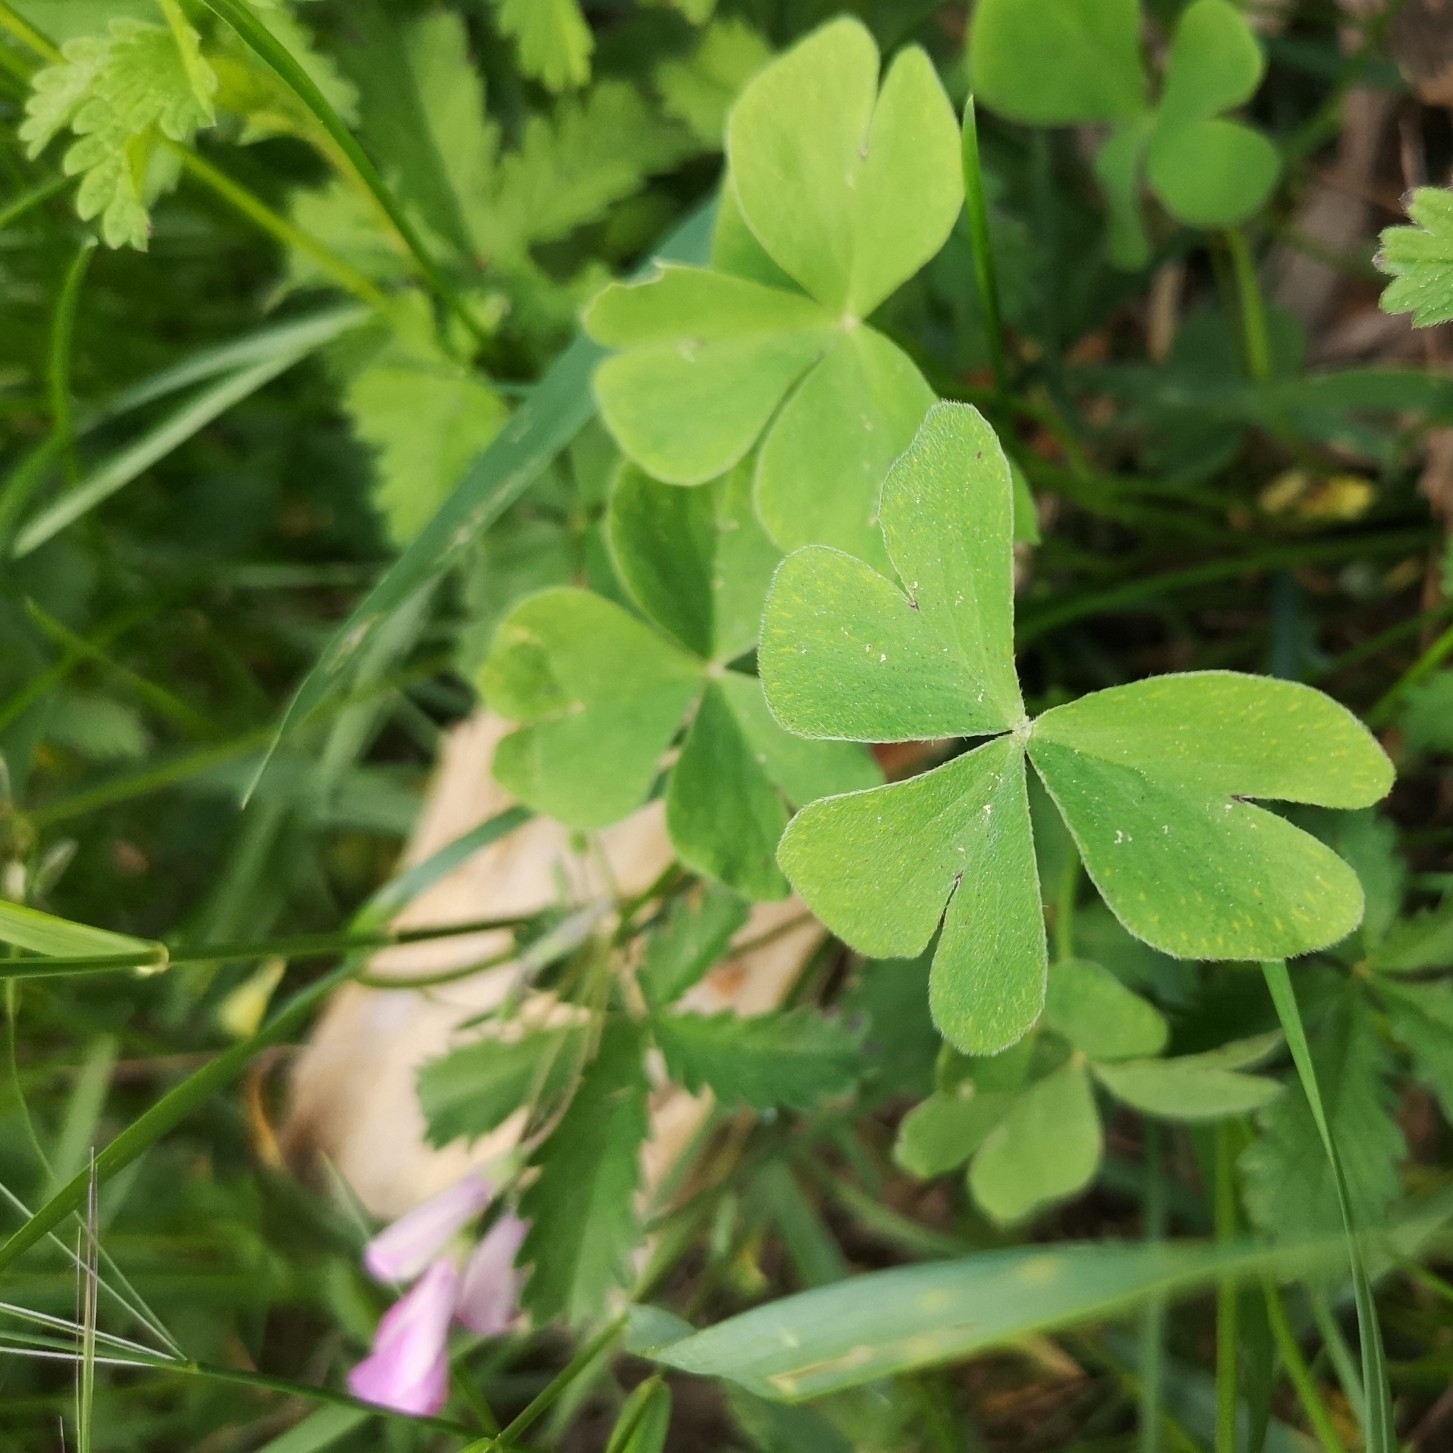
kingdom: Plantae
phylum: Tracheophyta
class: Magnoliopsida
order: Oxalidales
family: Oxalidaceae
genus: Oxalis
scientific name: Oxalis articulata
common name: Pink-sorrel
